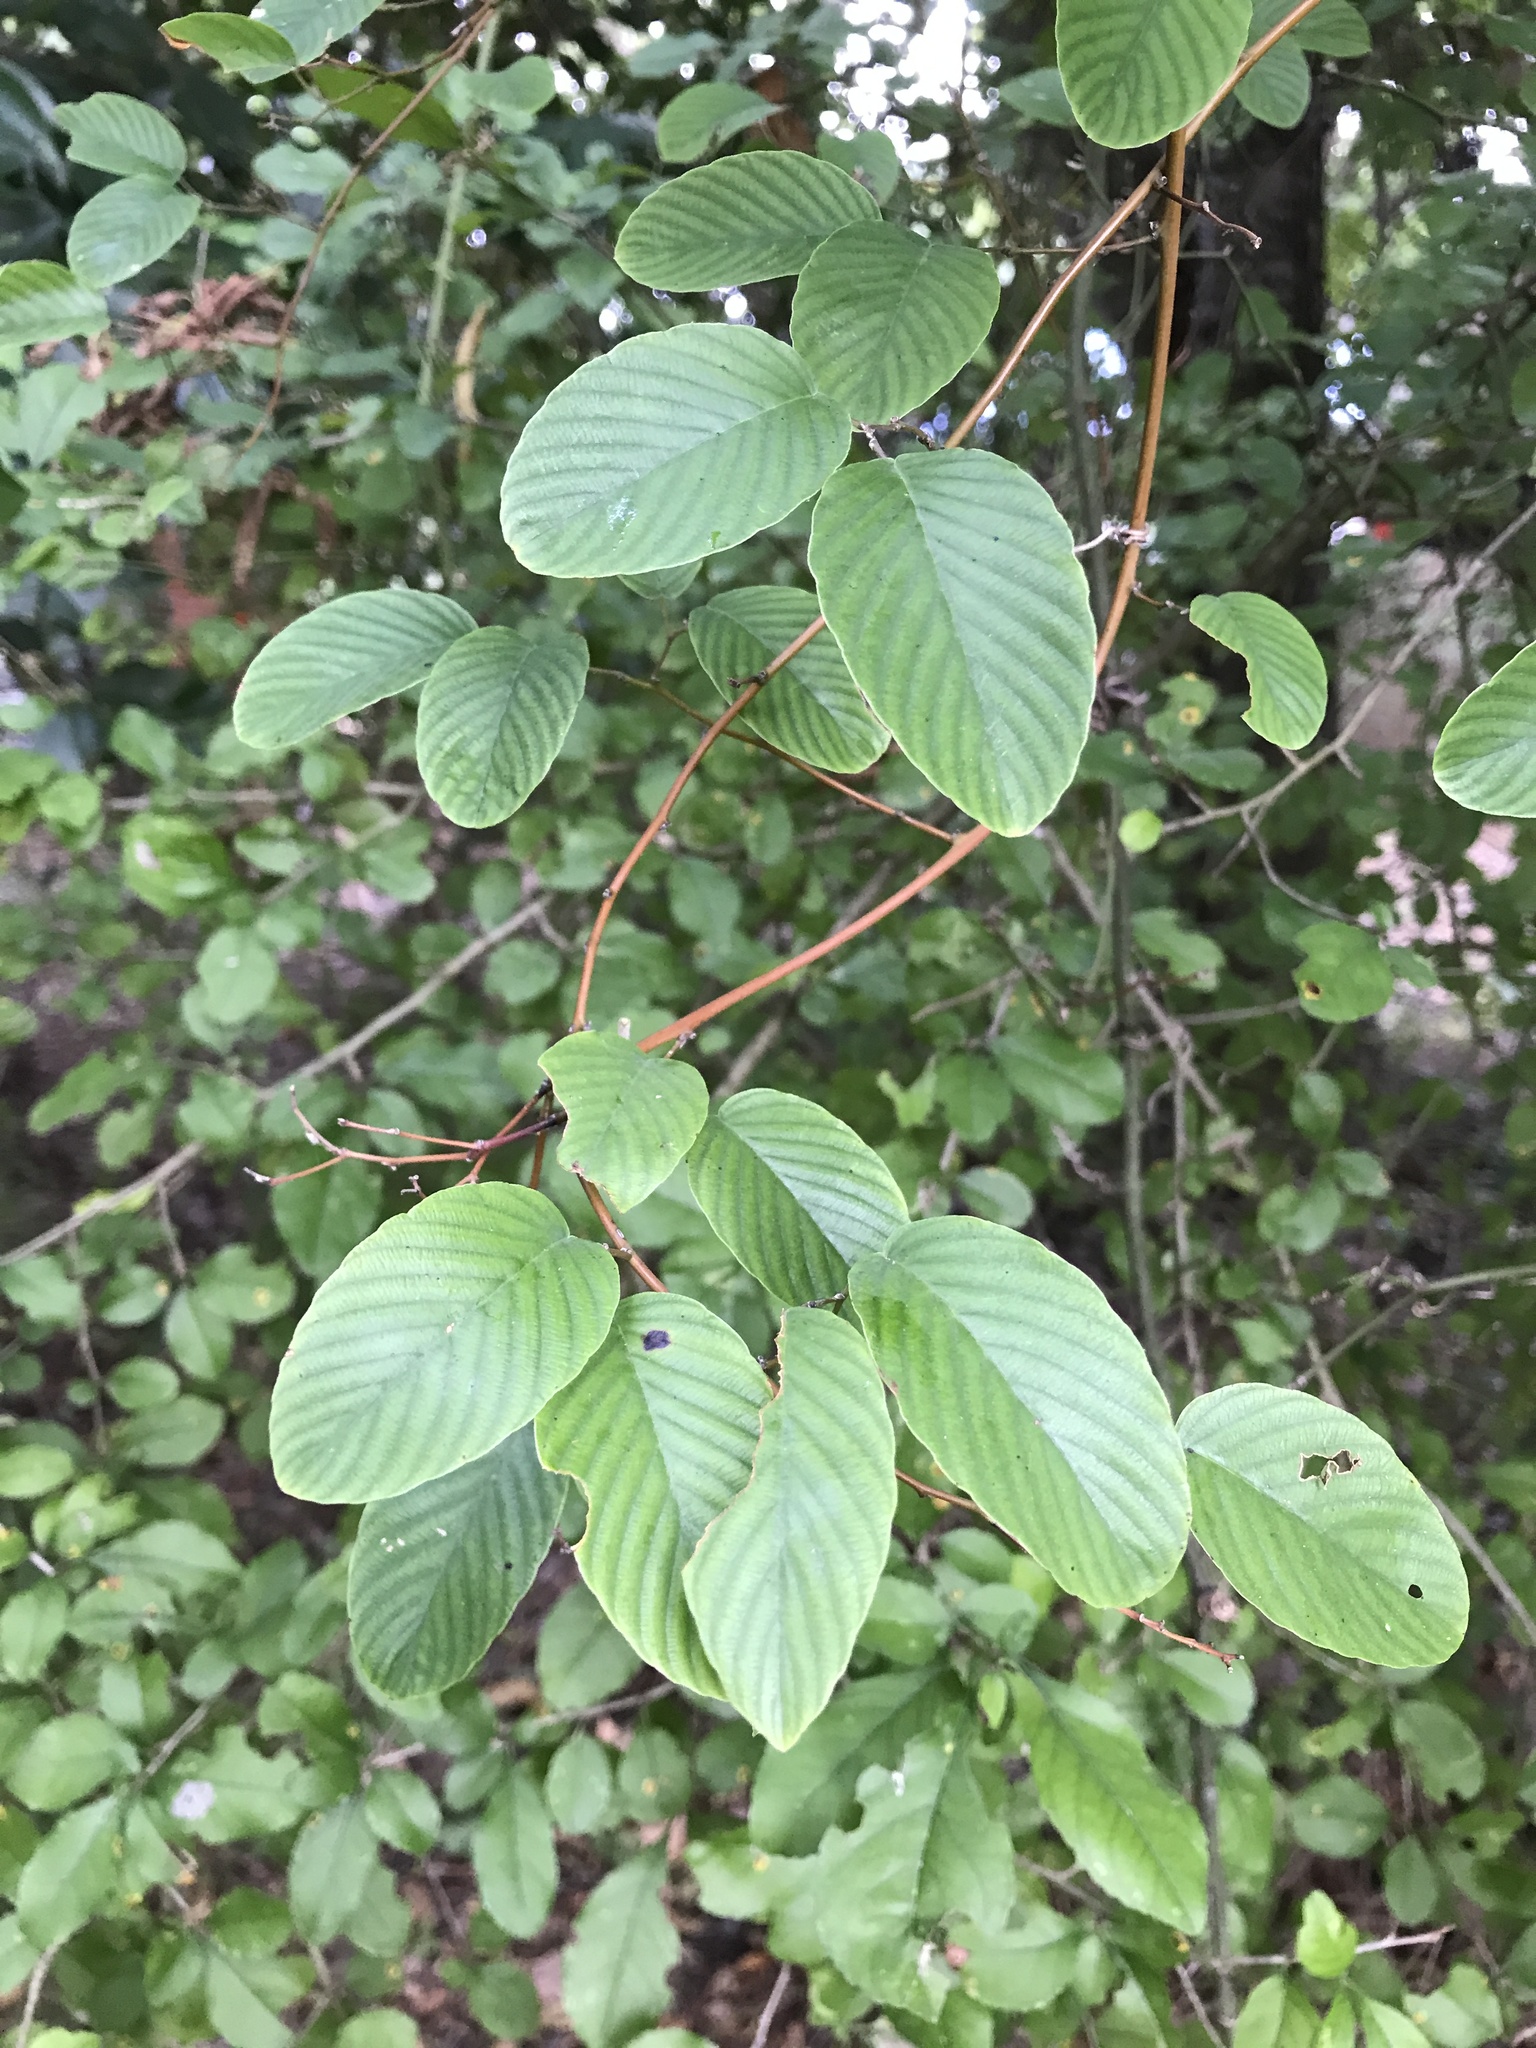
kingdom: Plantae
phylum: Tracheophyta
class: Magnoliopsida
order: Rosales
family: Rhamnaceae
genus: Berchemia
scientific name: Berchemia scandens
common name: Supplejack
